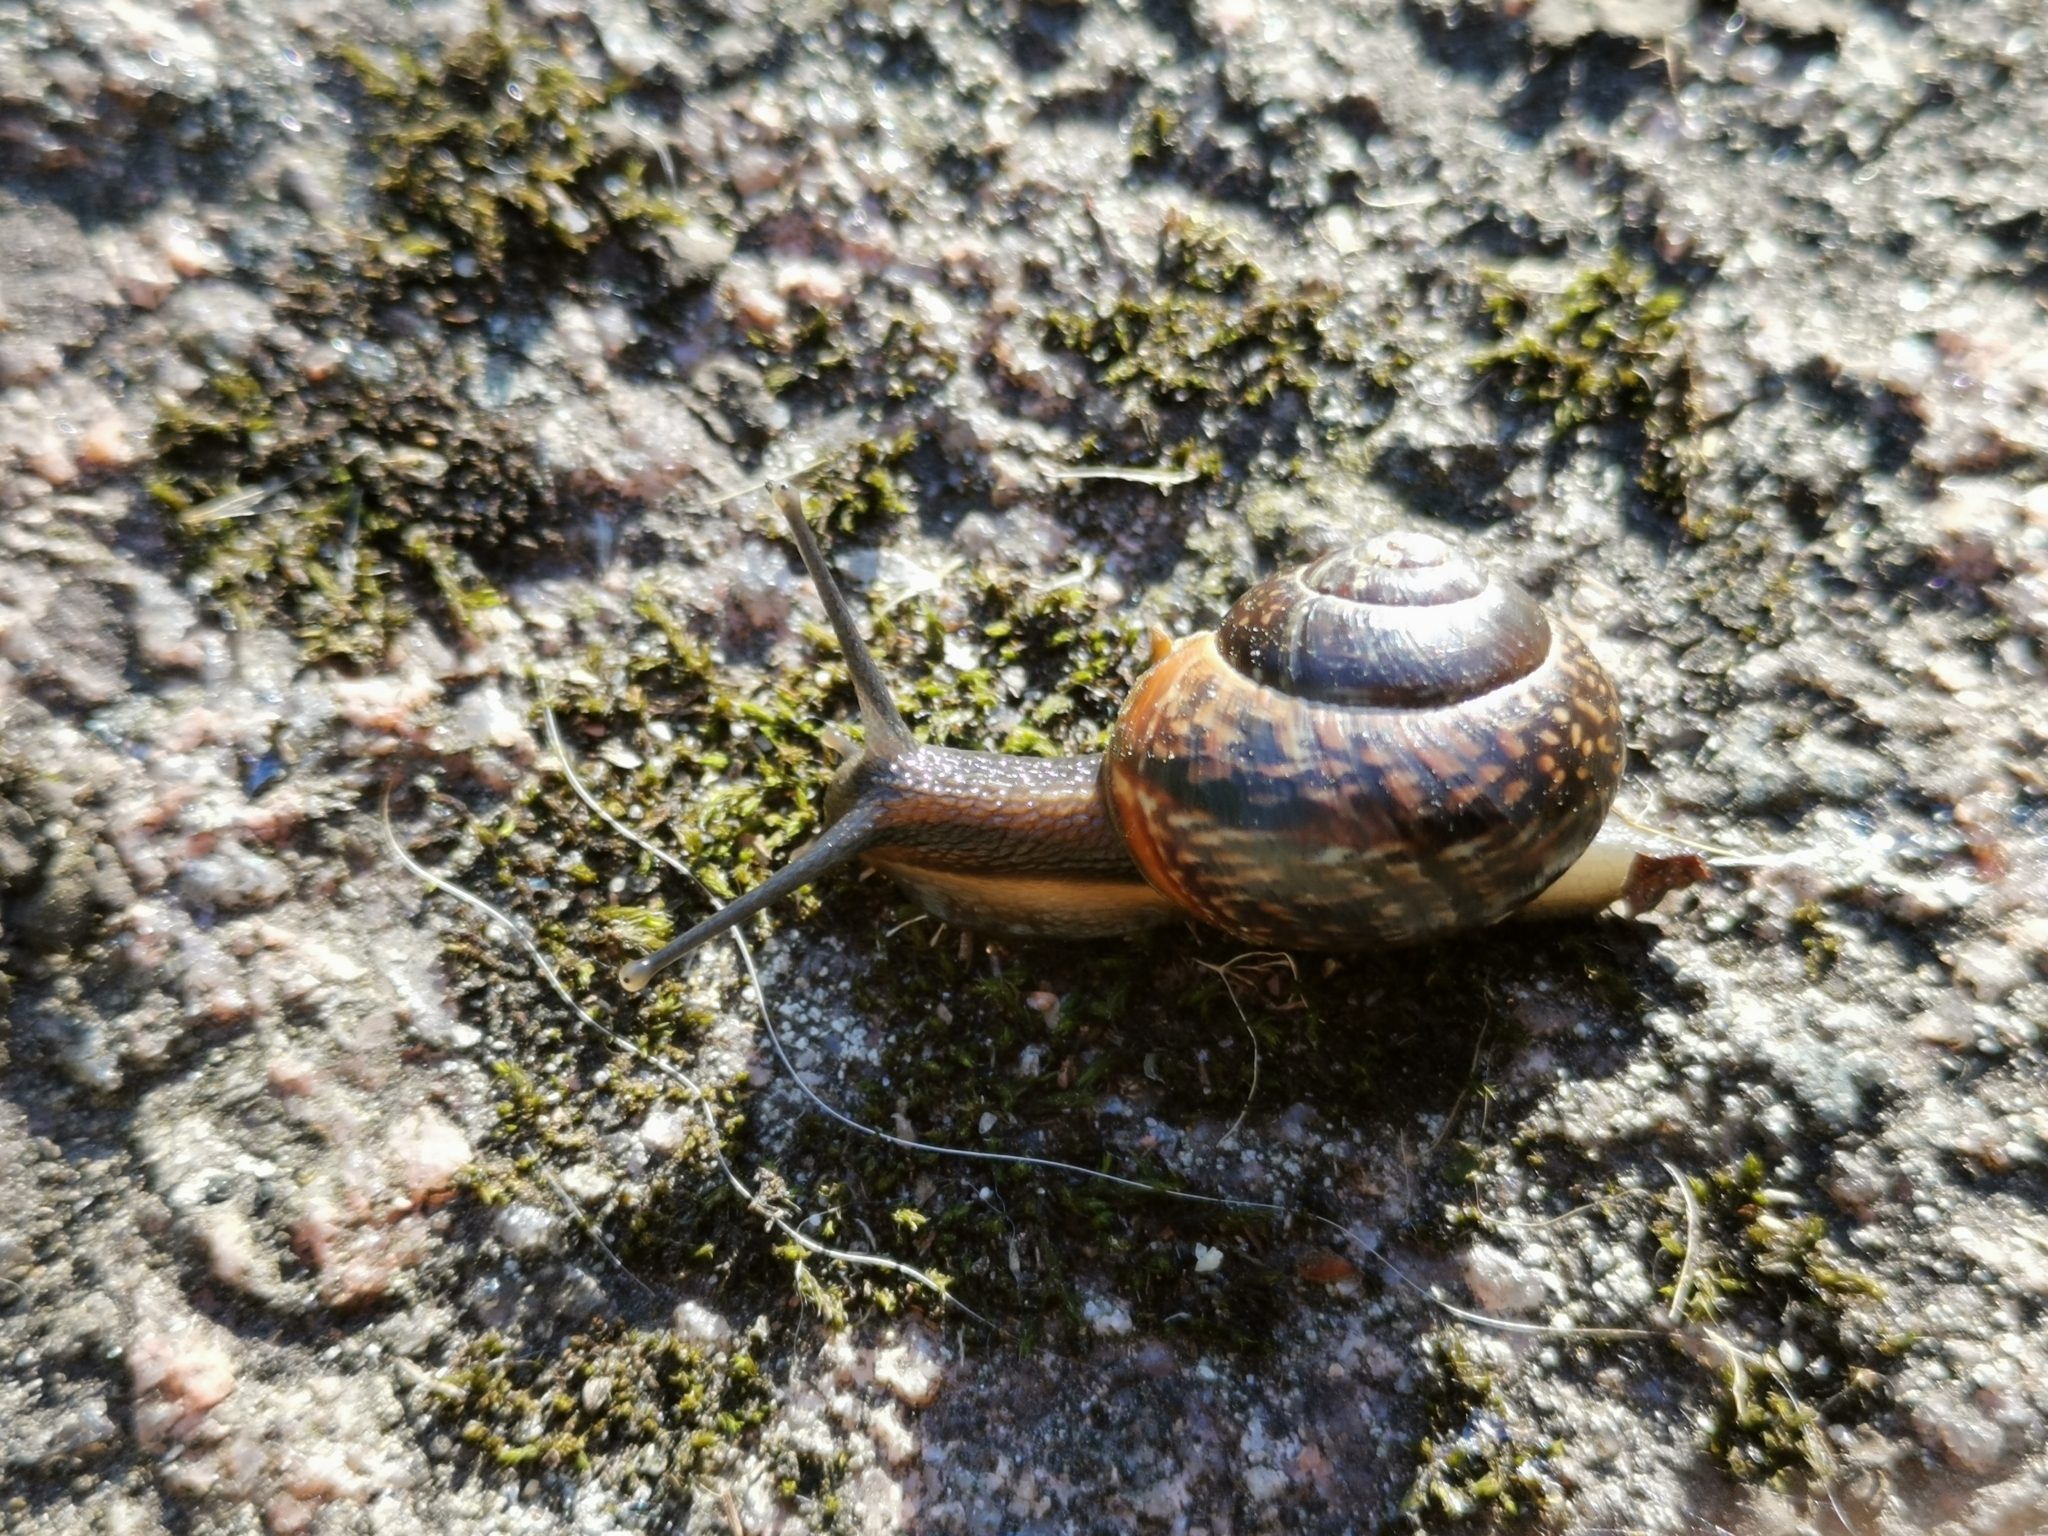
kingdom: Animalia
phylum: Mollusca
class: Gastropoda
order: Stylommatophora
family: Helicidae
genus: Arianta
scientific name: Arianta arbustorum
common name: Copse snail
